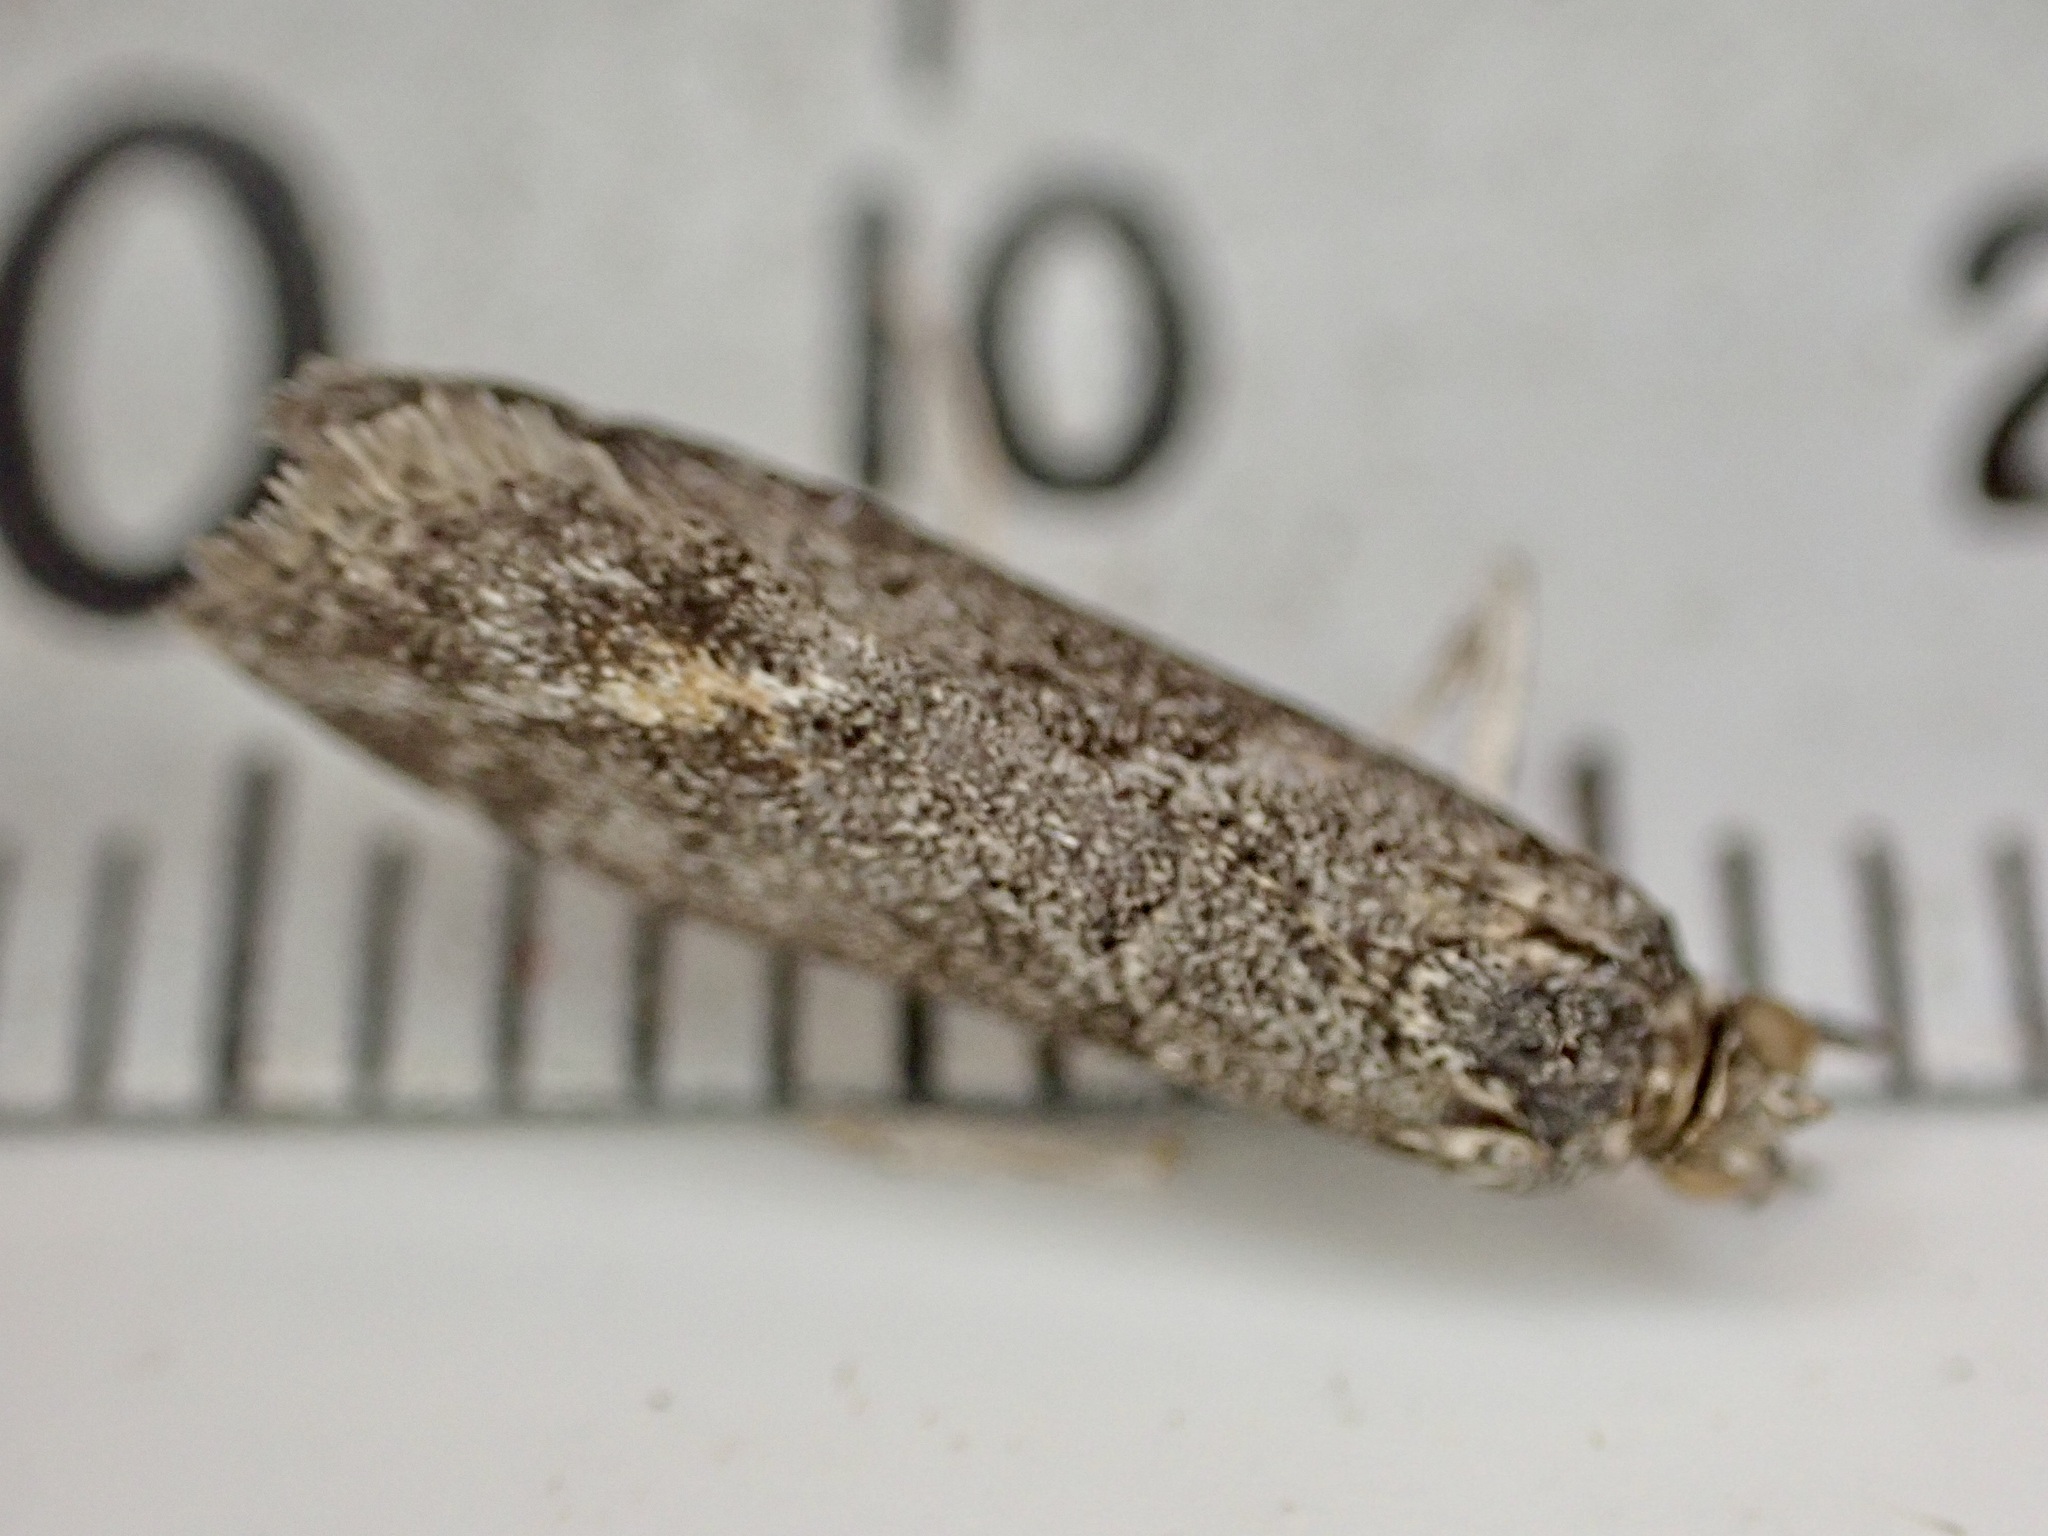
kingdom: Animalia
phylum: Arthropoda
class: Insecta
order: Lepidoptera
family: Crambidae
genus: Eudonia
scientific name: Eudonia submarginalis
